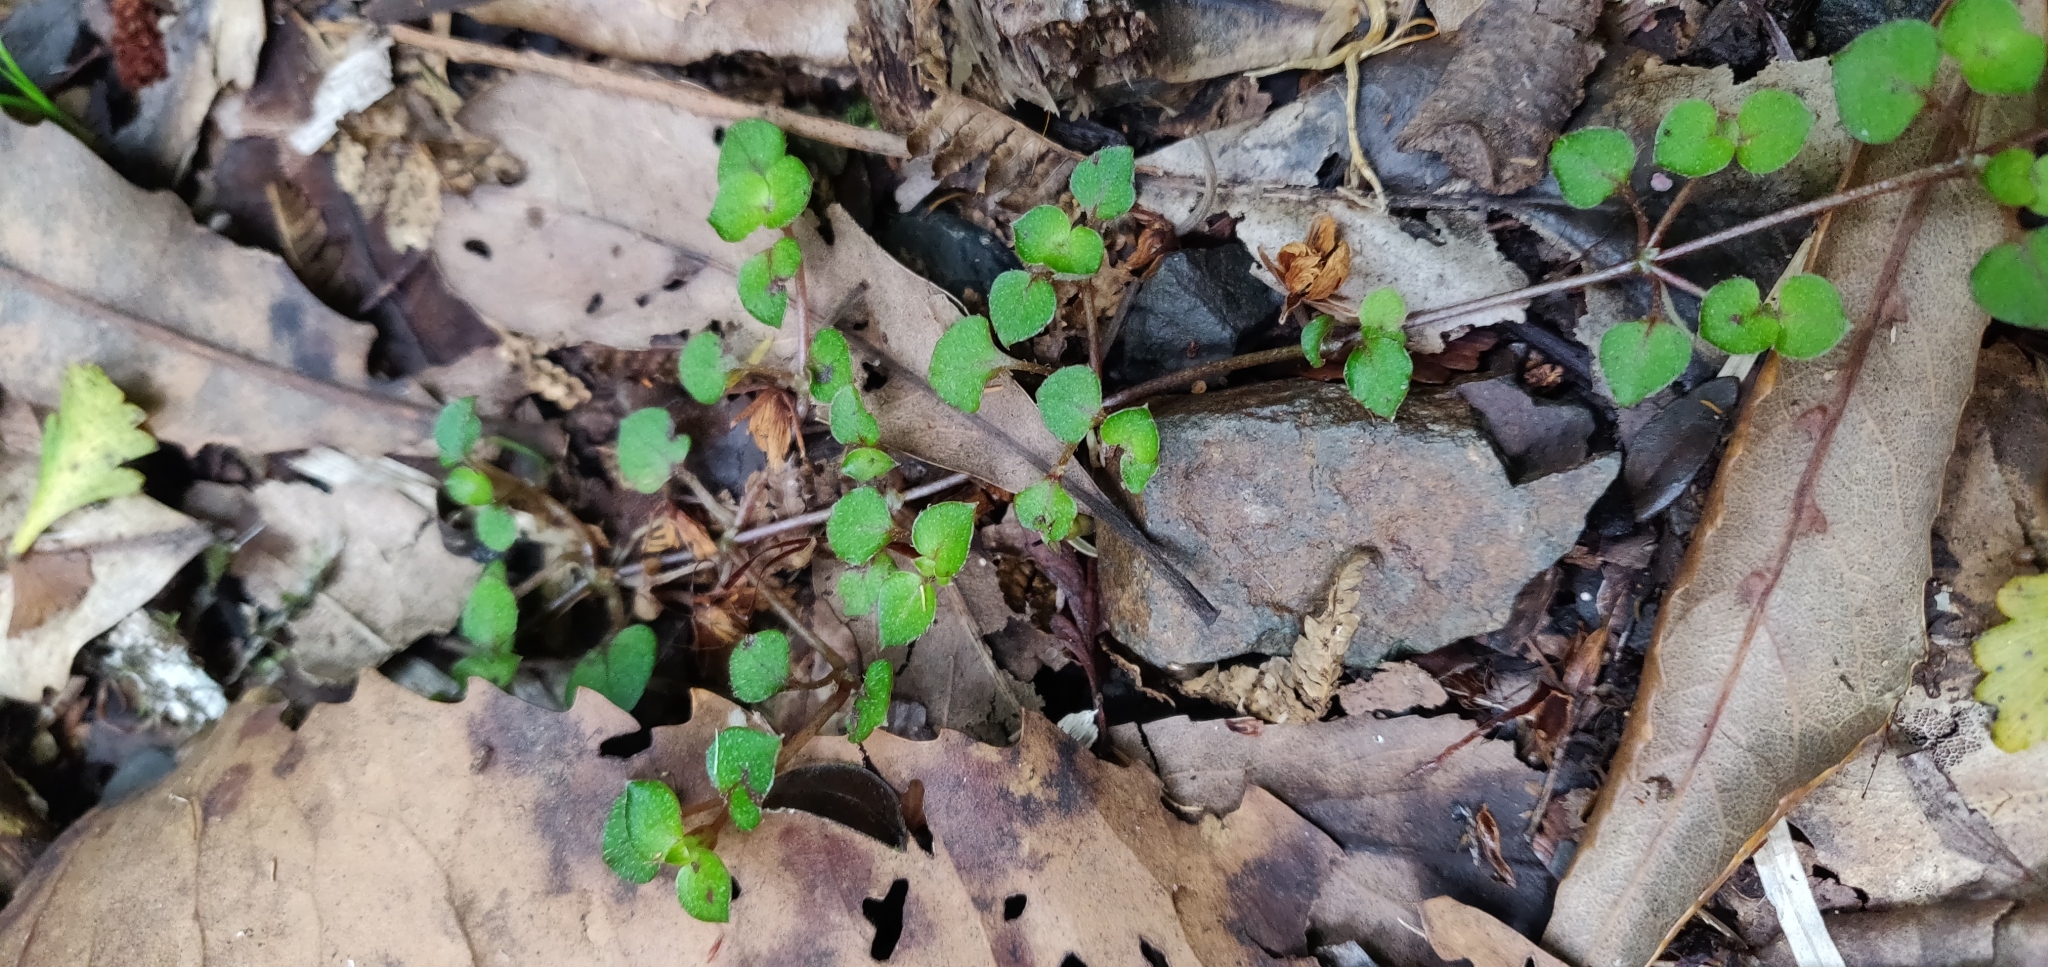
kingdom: Plantae
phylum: Tracheophyta
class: Magnoliopsida
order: Gentianales
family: Rubiaceae
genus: Nertera
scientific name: Nertera dichondrifolia
